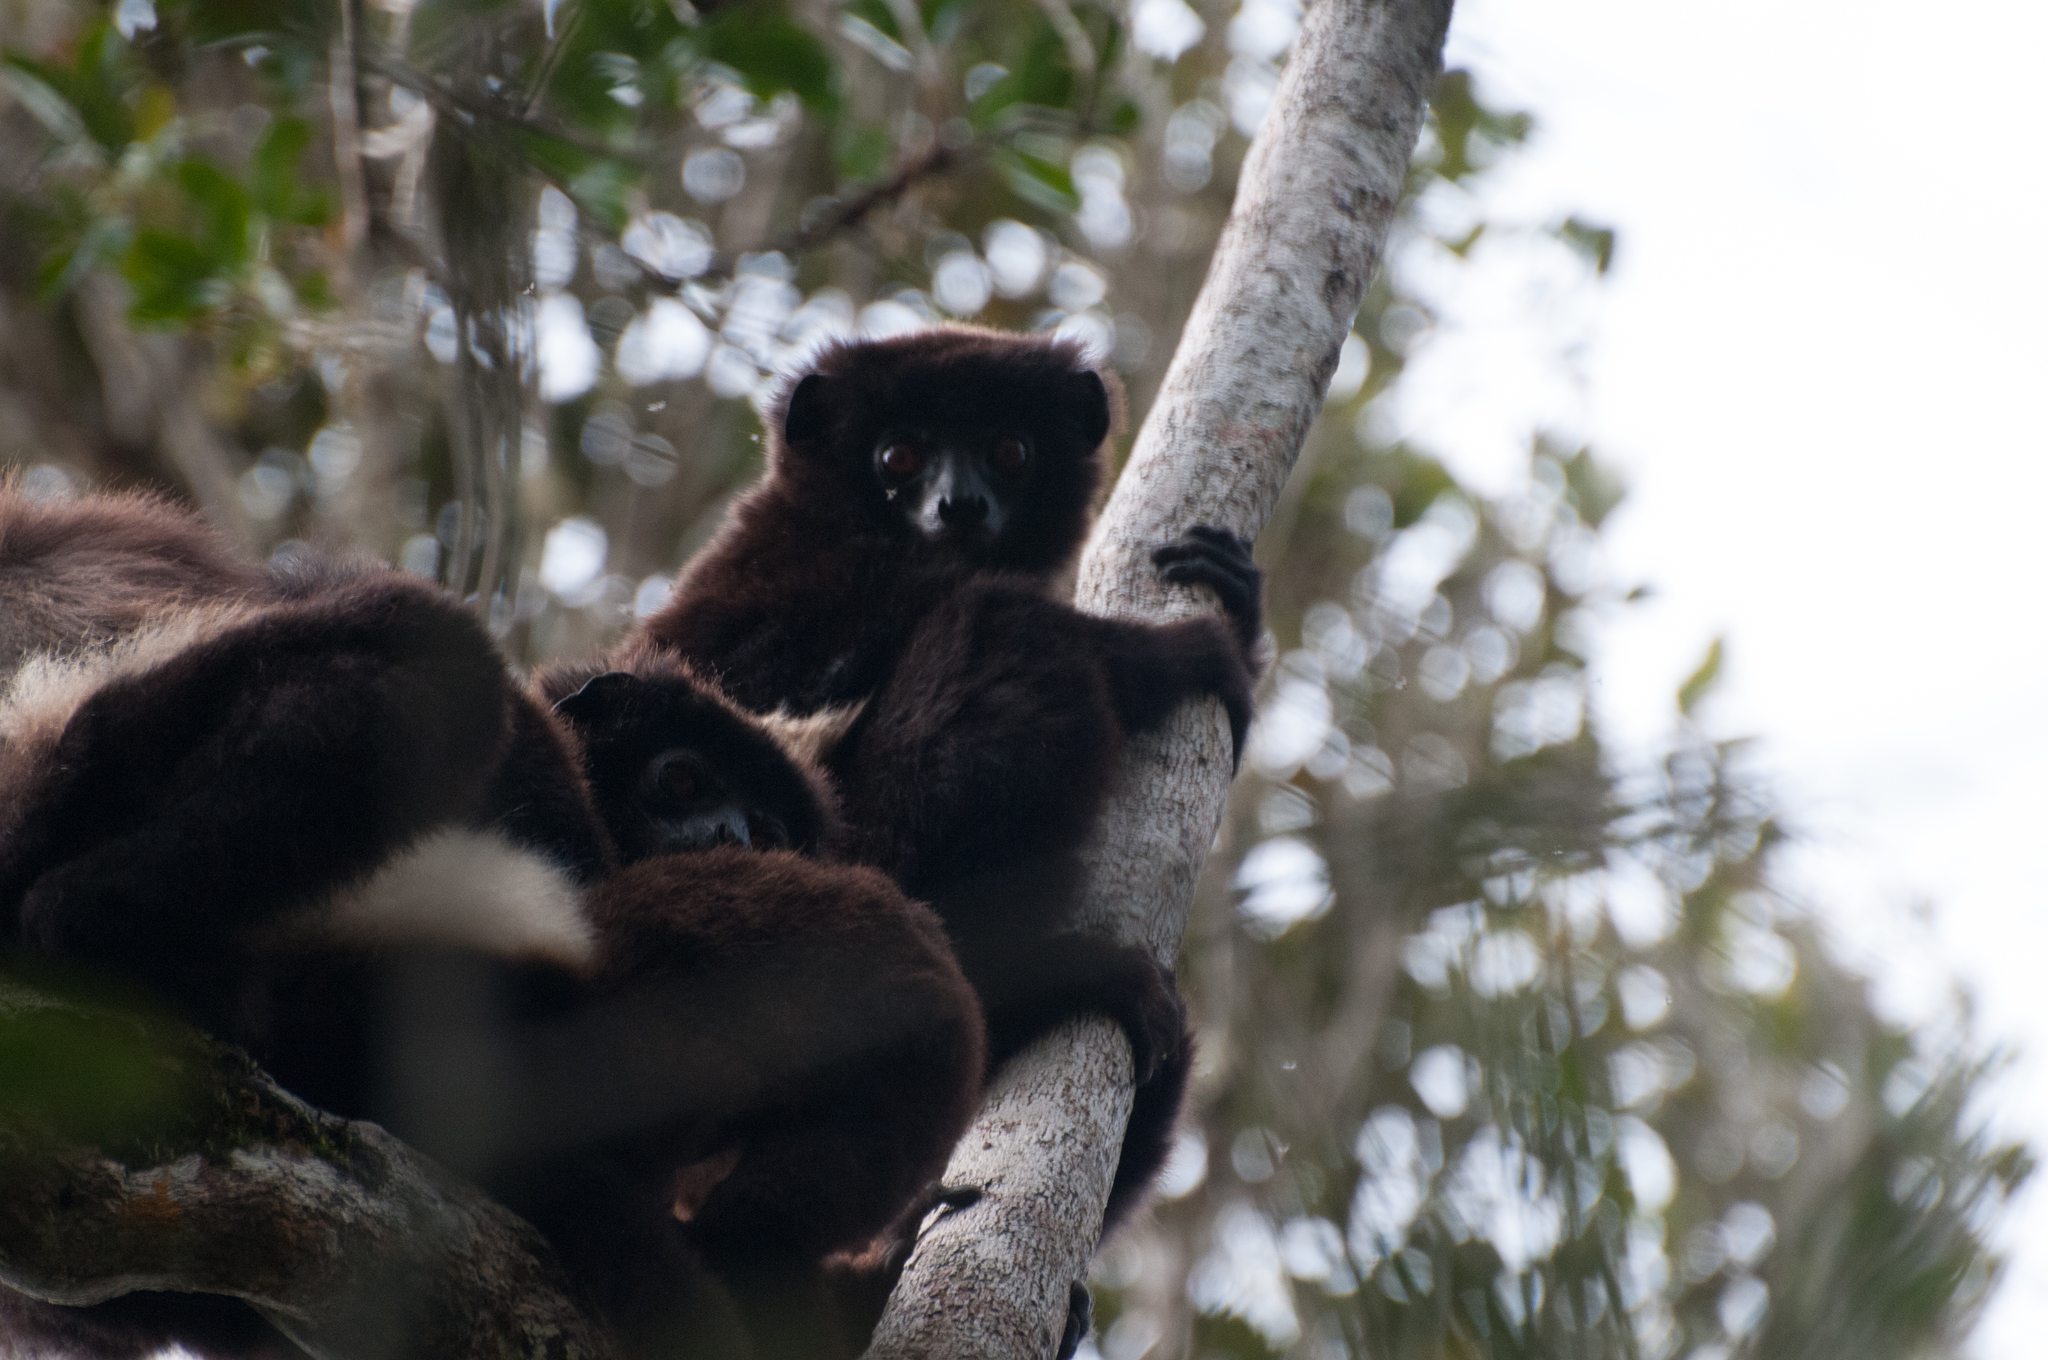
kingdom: Animalia
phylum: Chordata
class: Mammalia
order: Primates
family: Indriidae
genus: Propithecus
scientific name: Propithecus edwardsi
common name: Milne-edwards’s simpona
